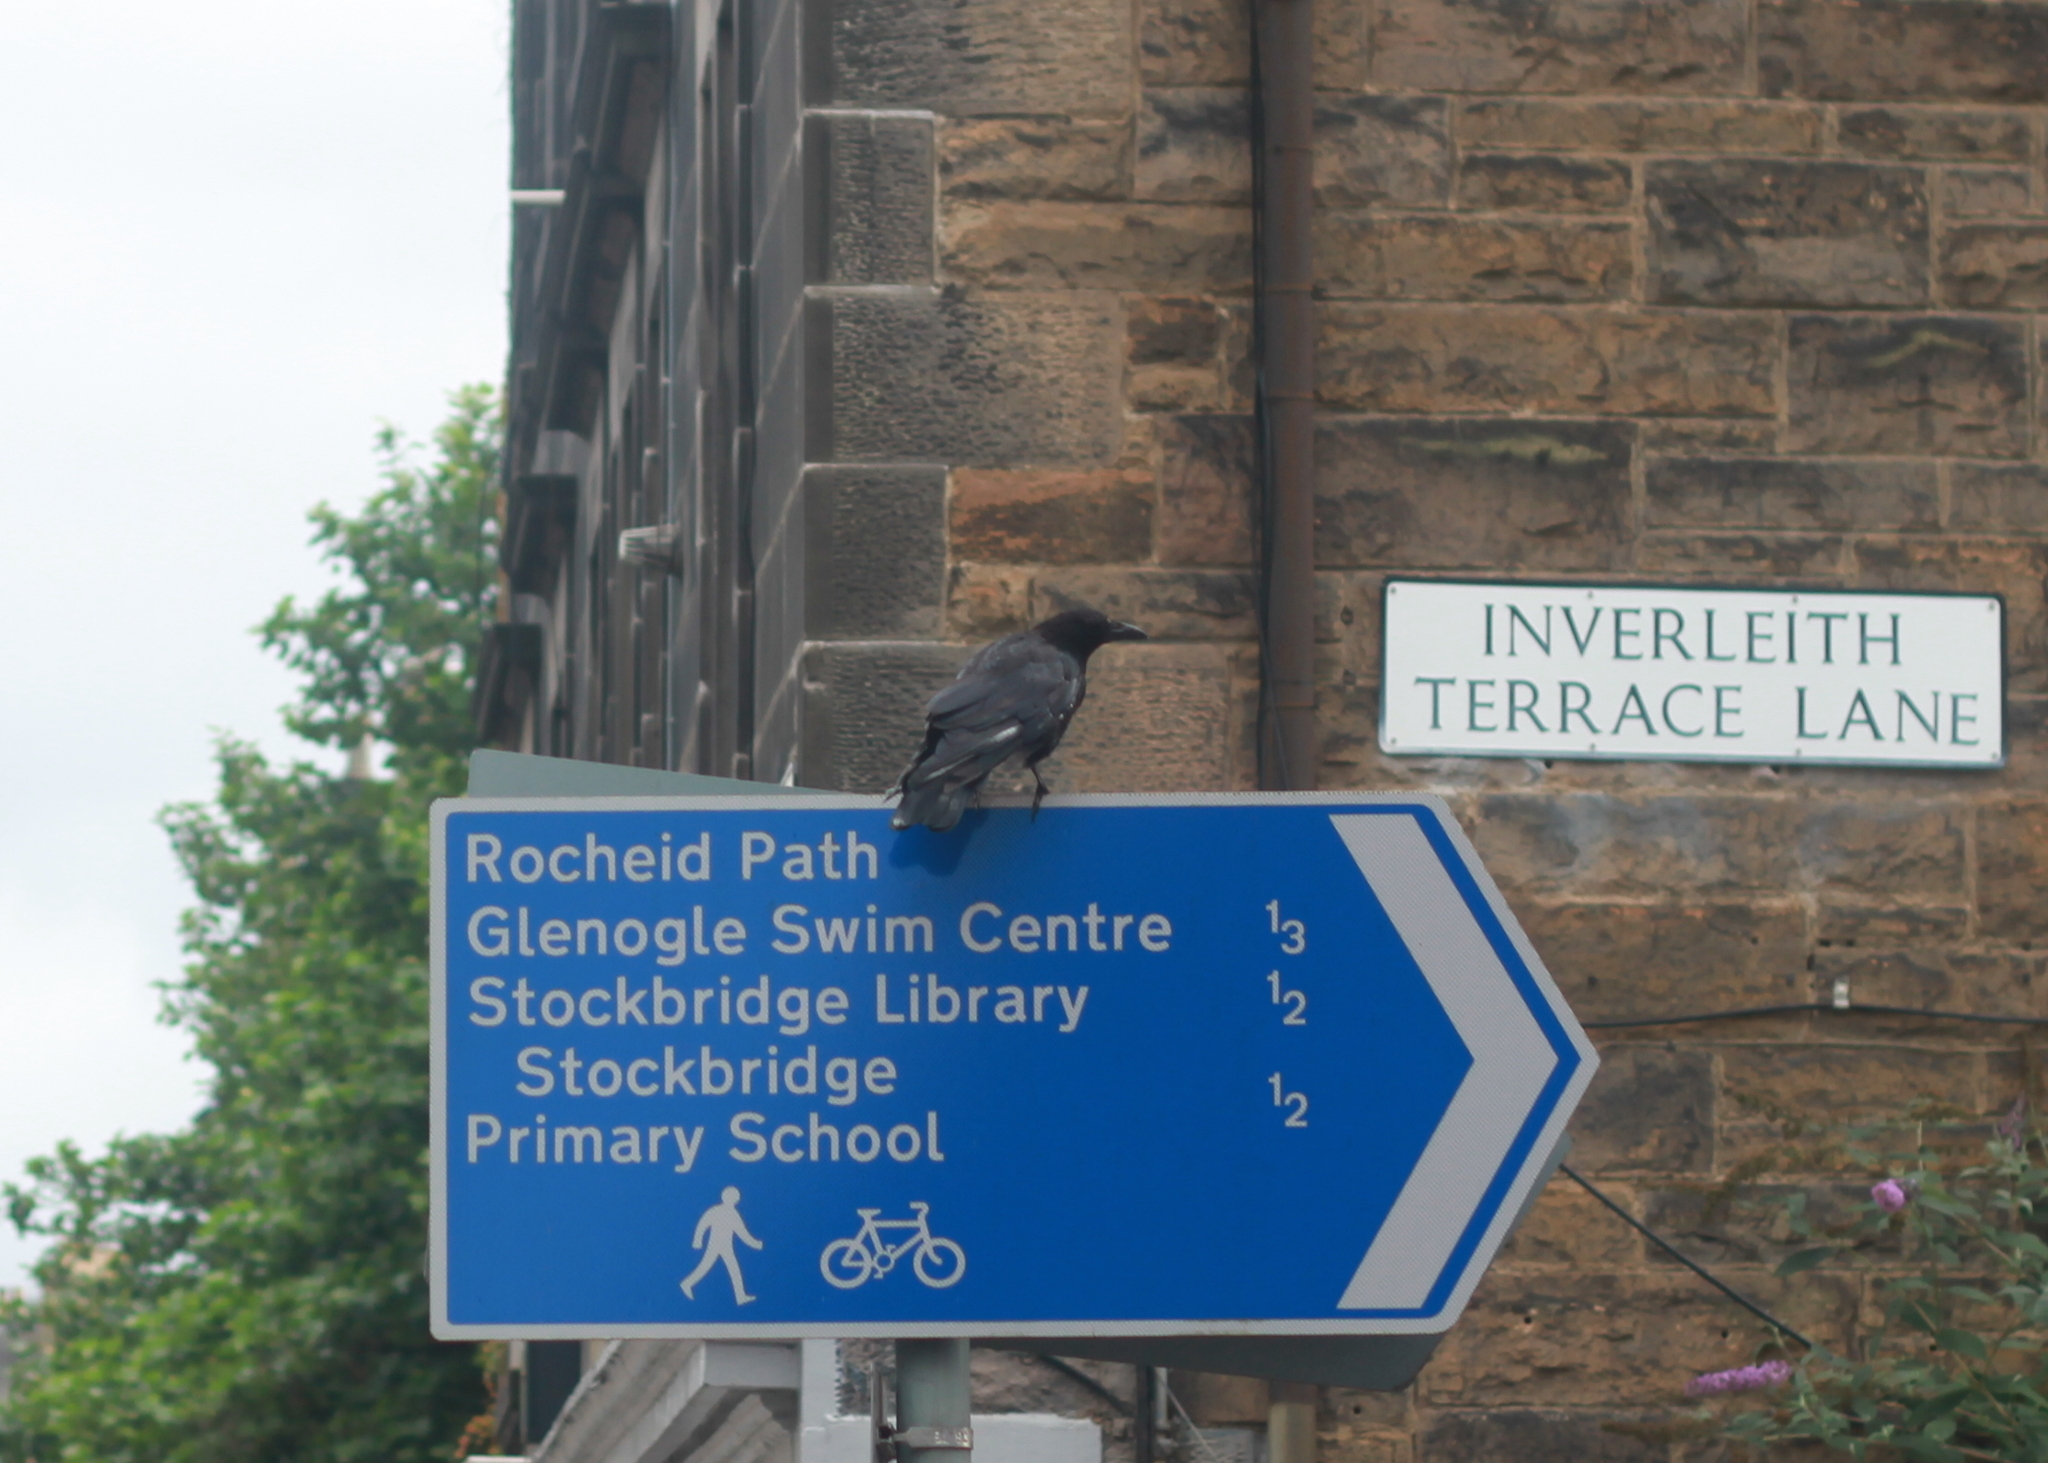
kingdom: Animalia
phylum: Chordata
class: Aves
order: Passeriformes
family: Corvidae
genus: Corvus
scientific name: Corvus corone
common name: Carrion crow
